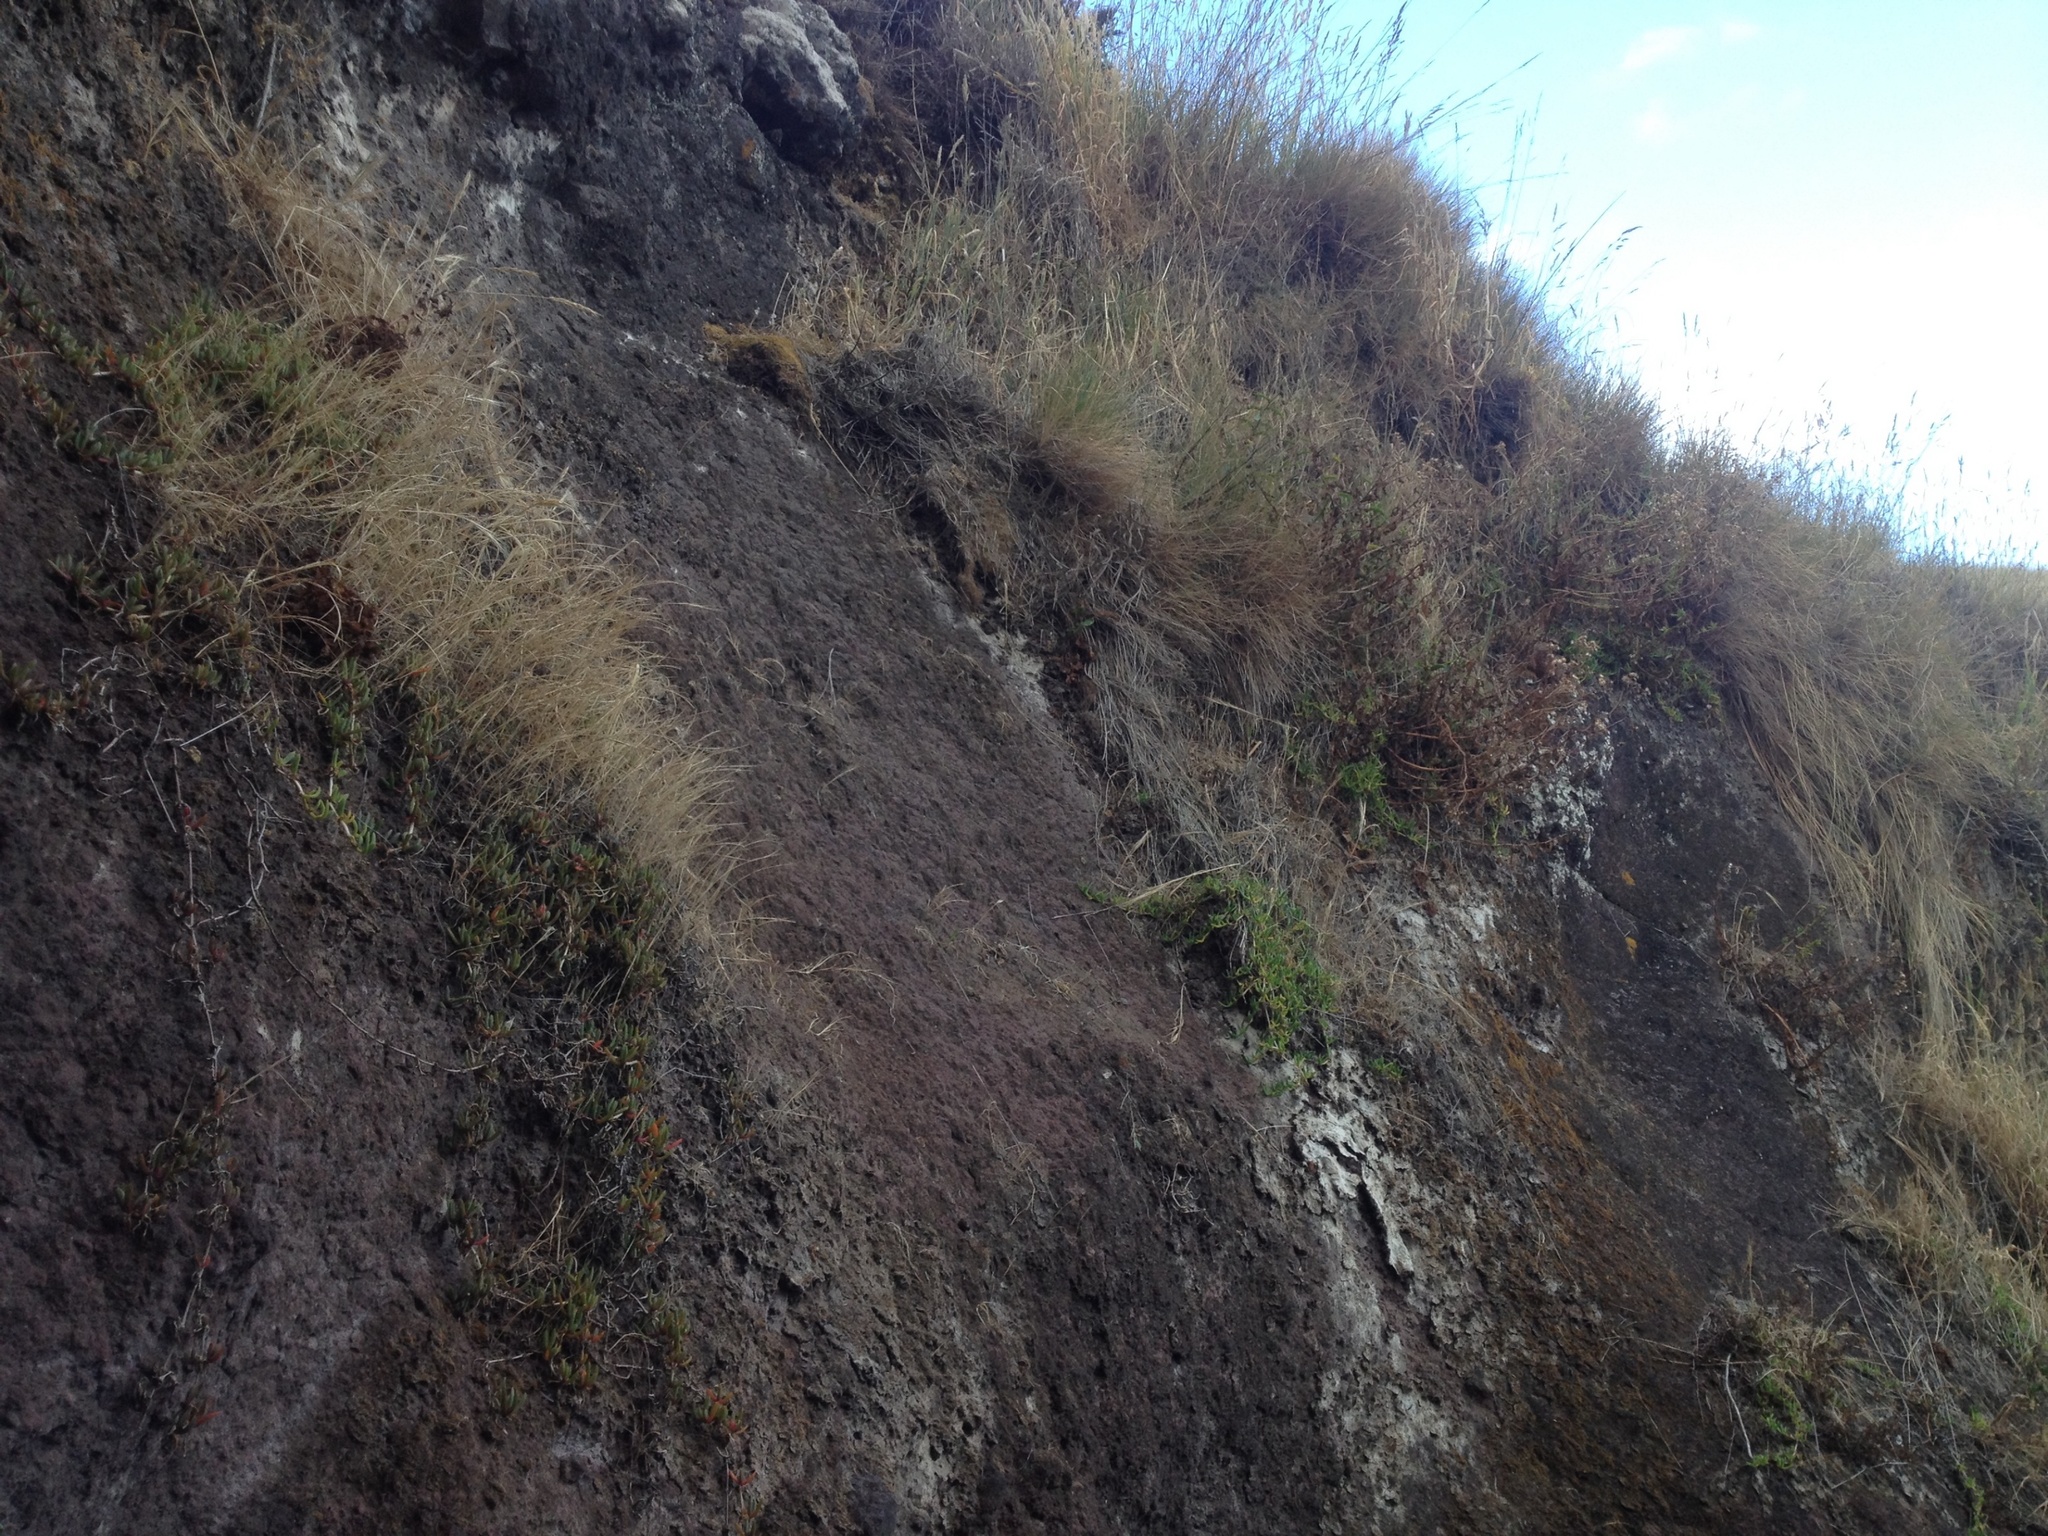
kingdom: Plantae
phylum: Tracheophyta
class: Magnoliopsida
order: Asterales
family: Asteraceae
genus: Senecio
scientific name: Senecio matatini
